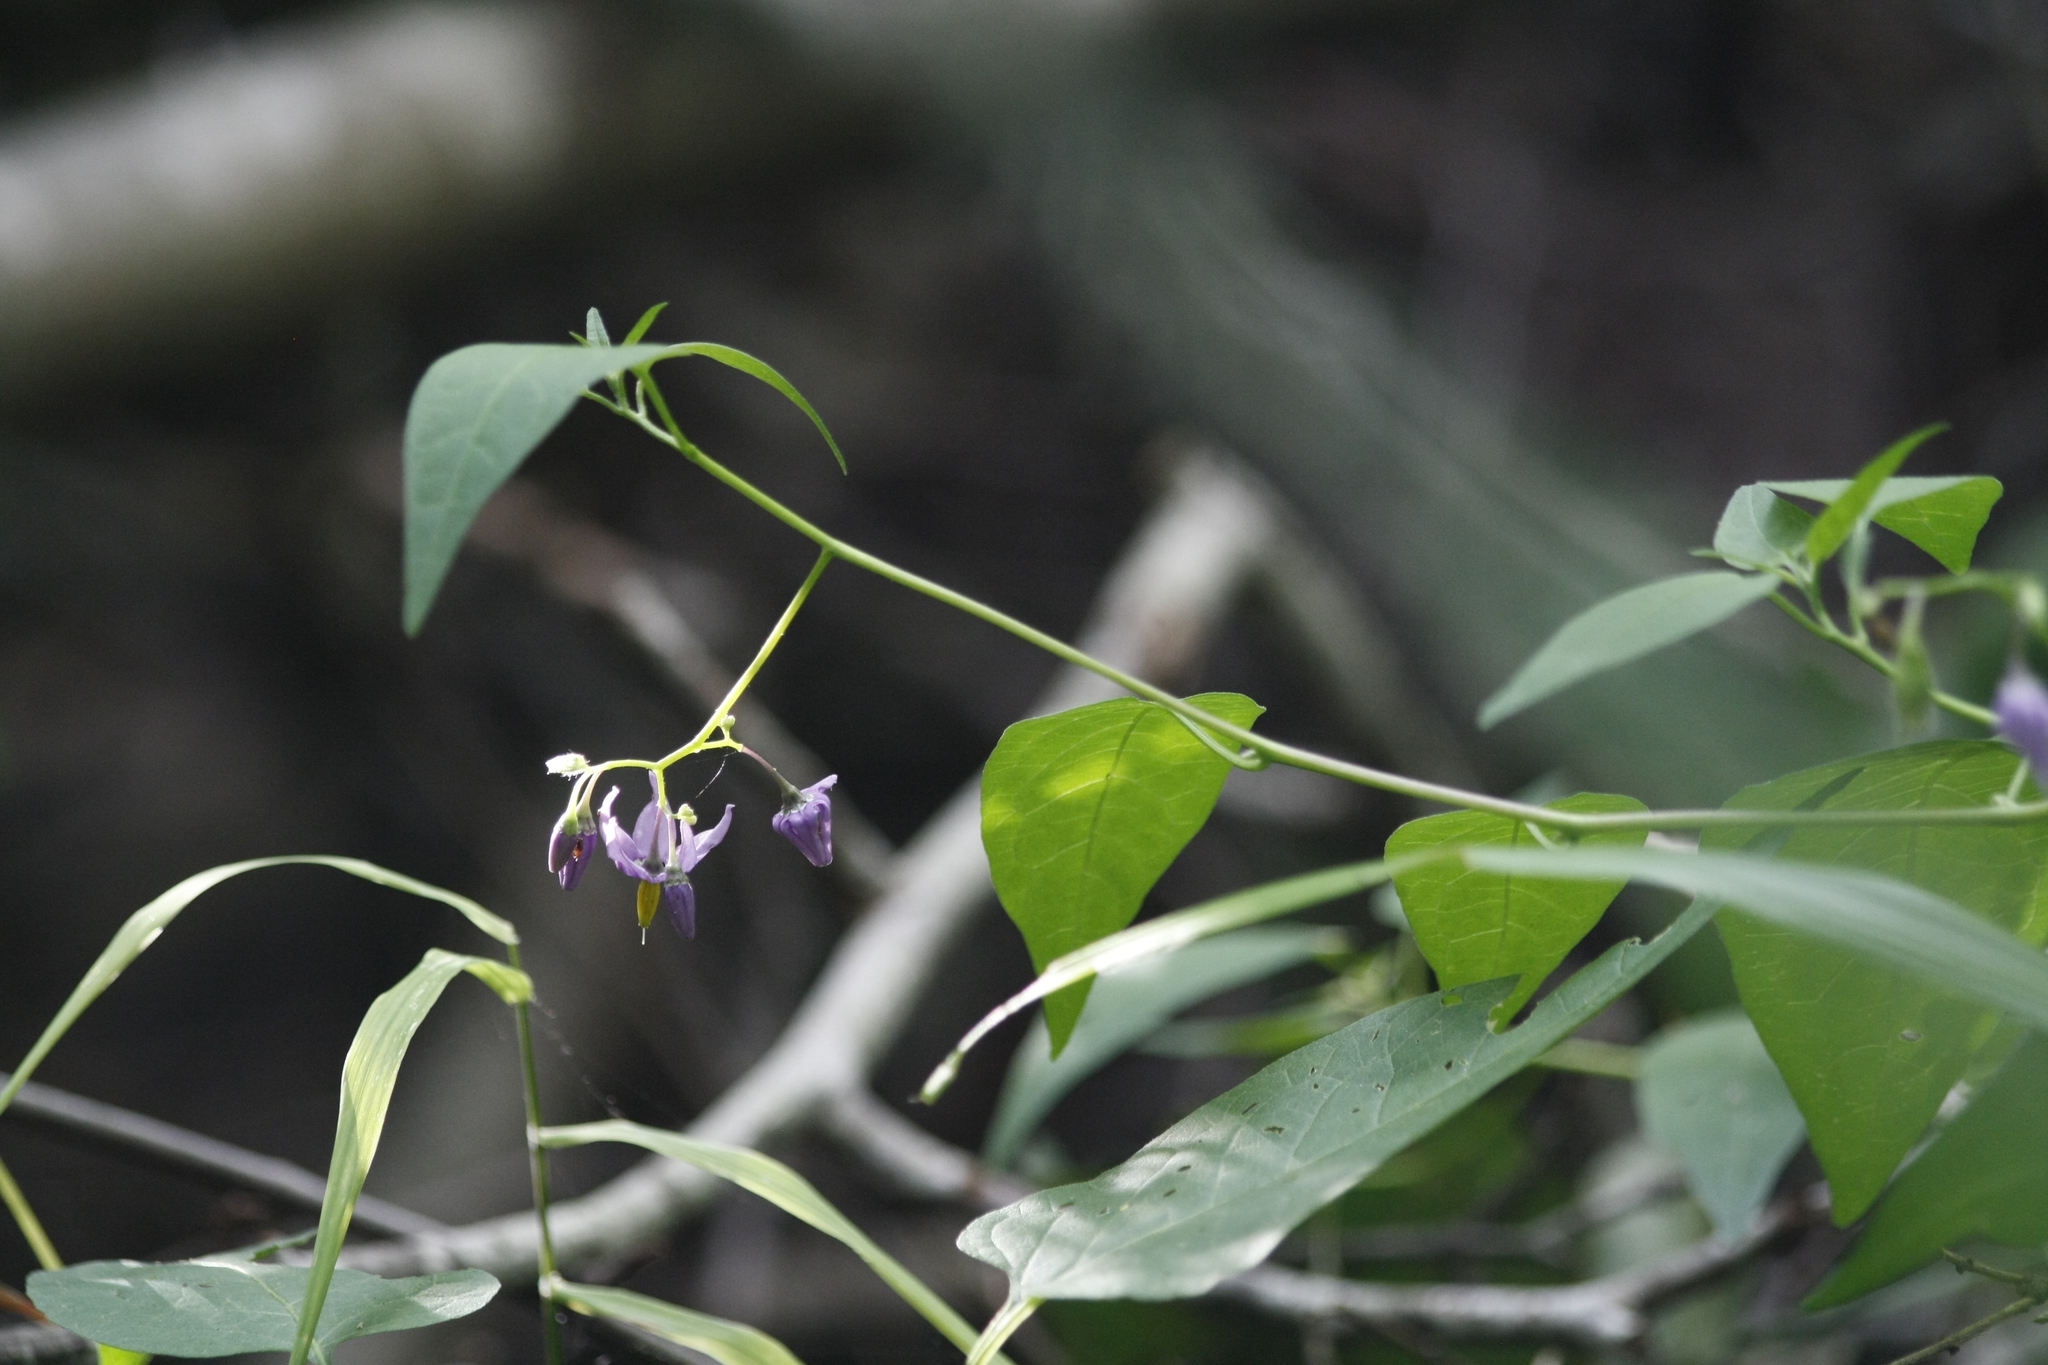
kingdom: Plantae
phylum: Tracheophyta
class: Magnoliopsida
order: Solanales
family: Solanaceae
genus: Solanum
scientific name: Solanum dulcamara
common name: Climbing nightshade
